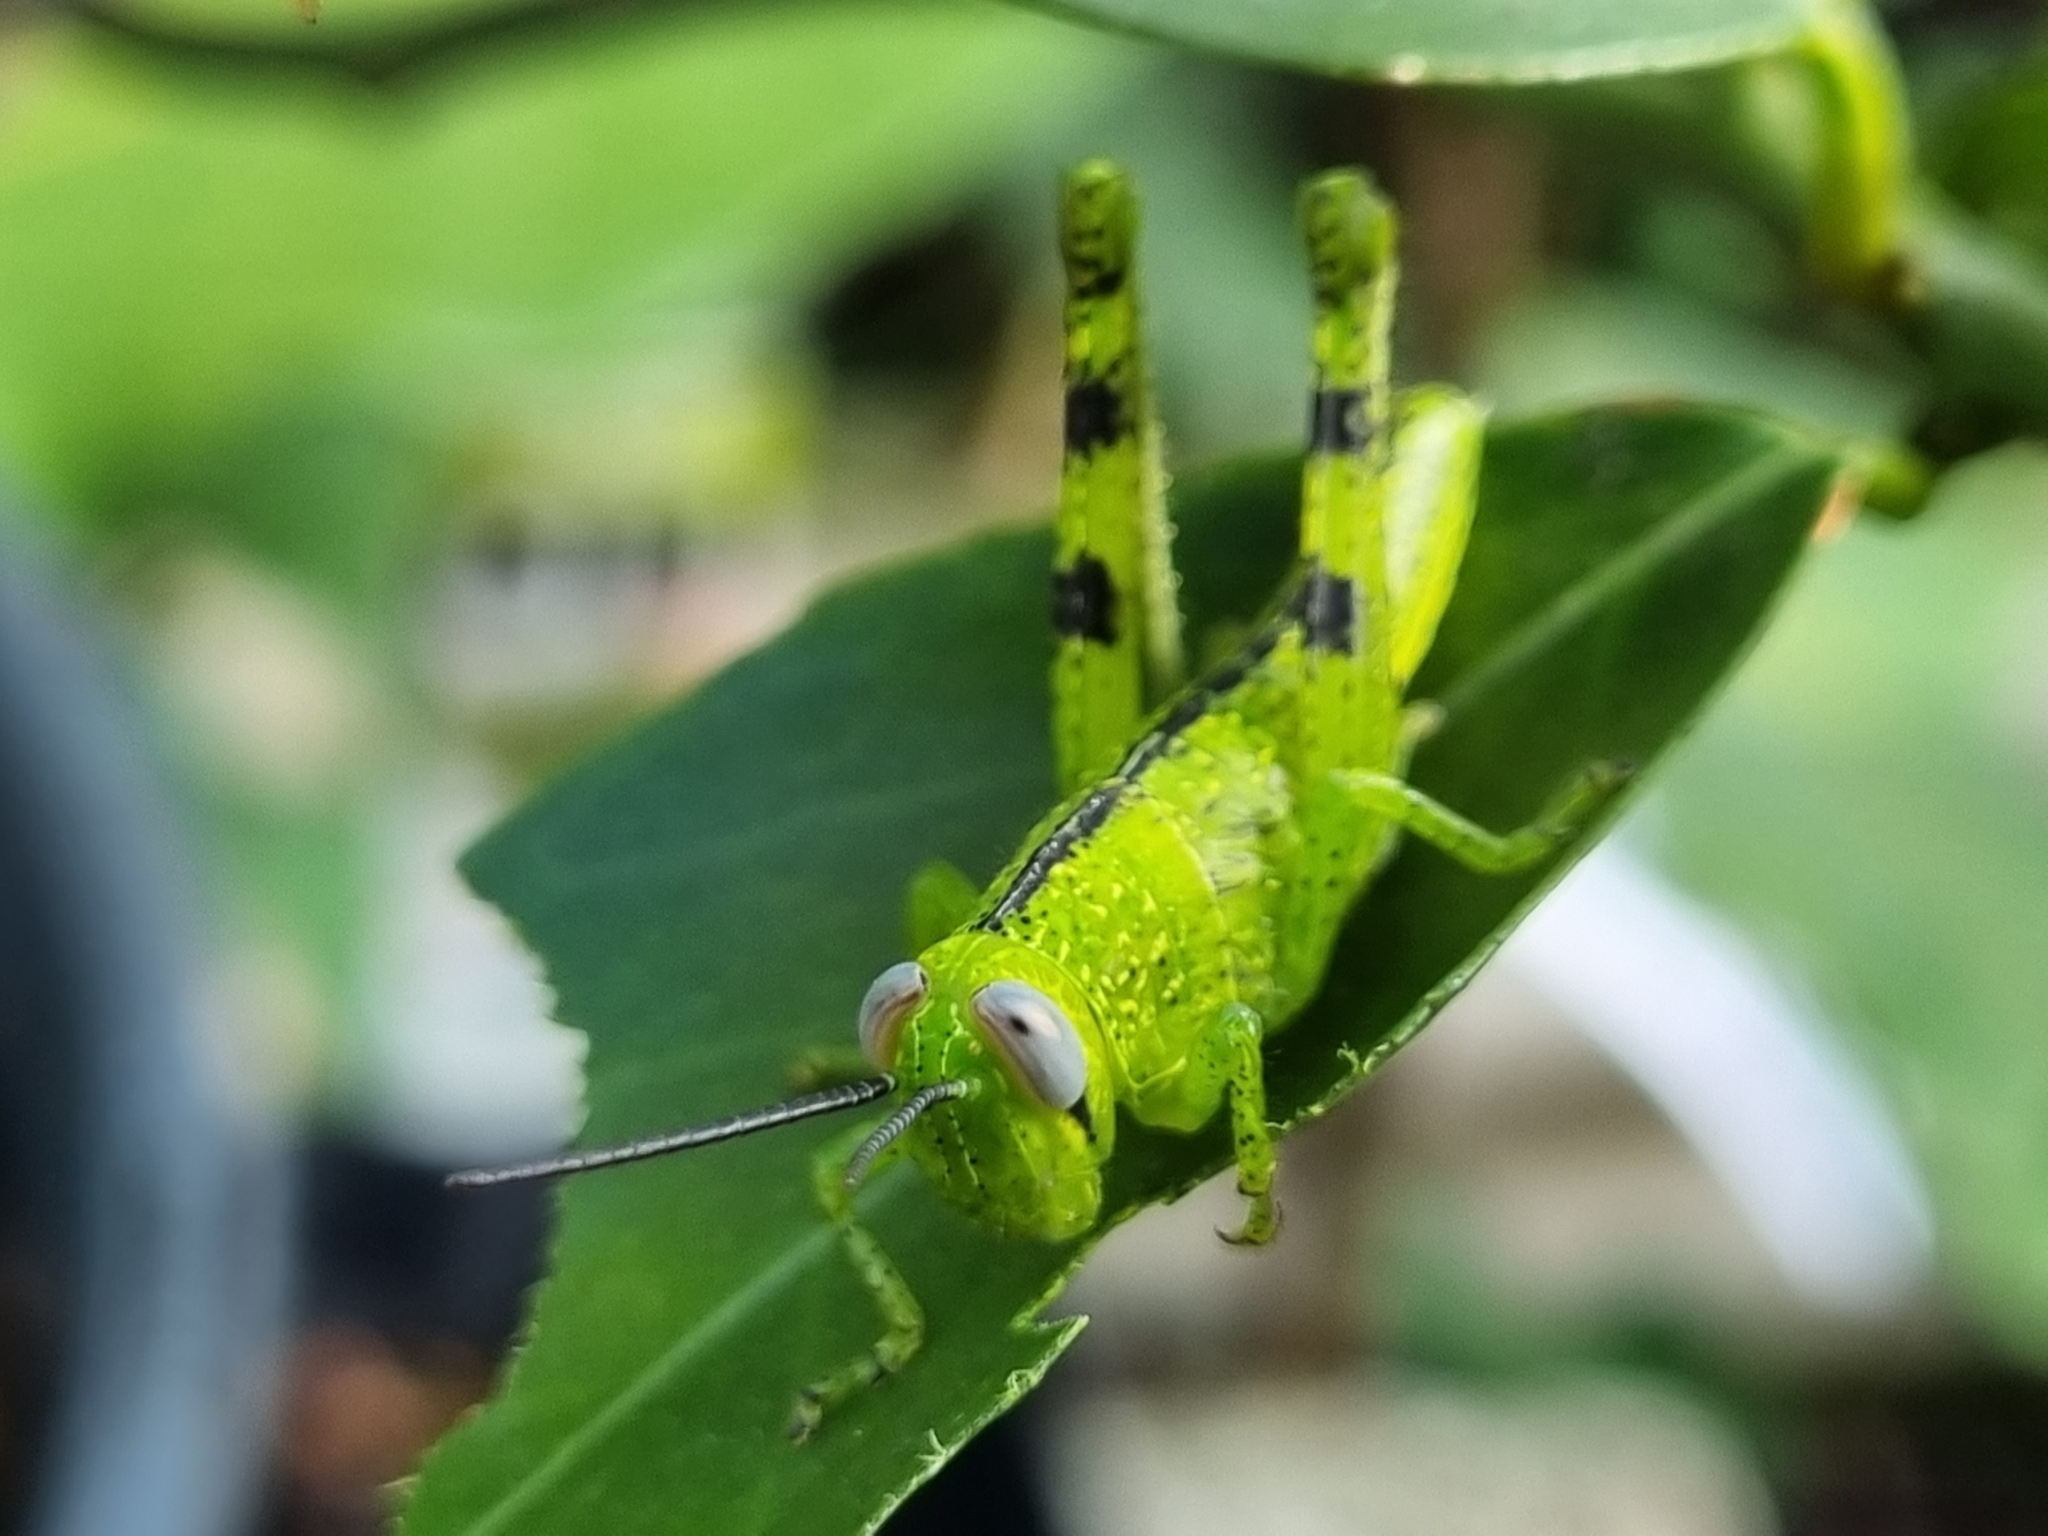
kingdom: Animalia
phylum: Arthropoda
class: Insecta
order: Orthoptera
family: Acrididae
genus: Valanga
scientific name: Valanga irregularis
